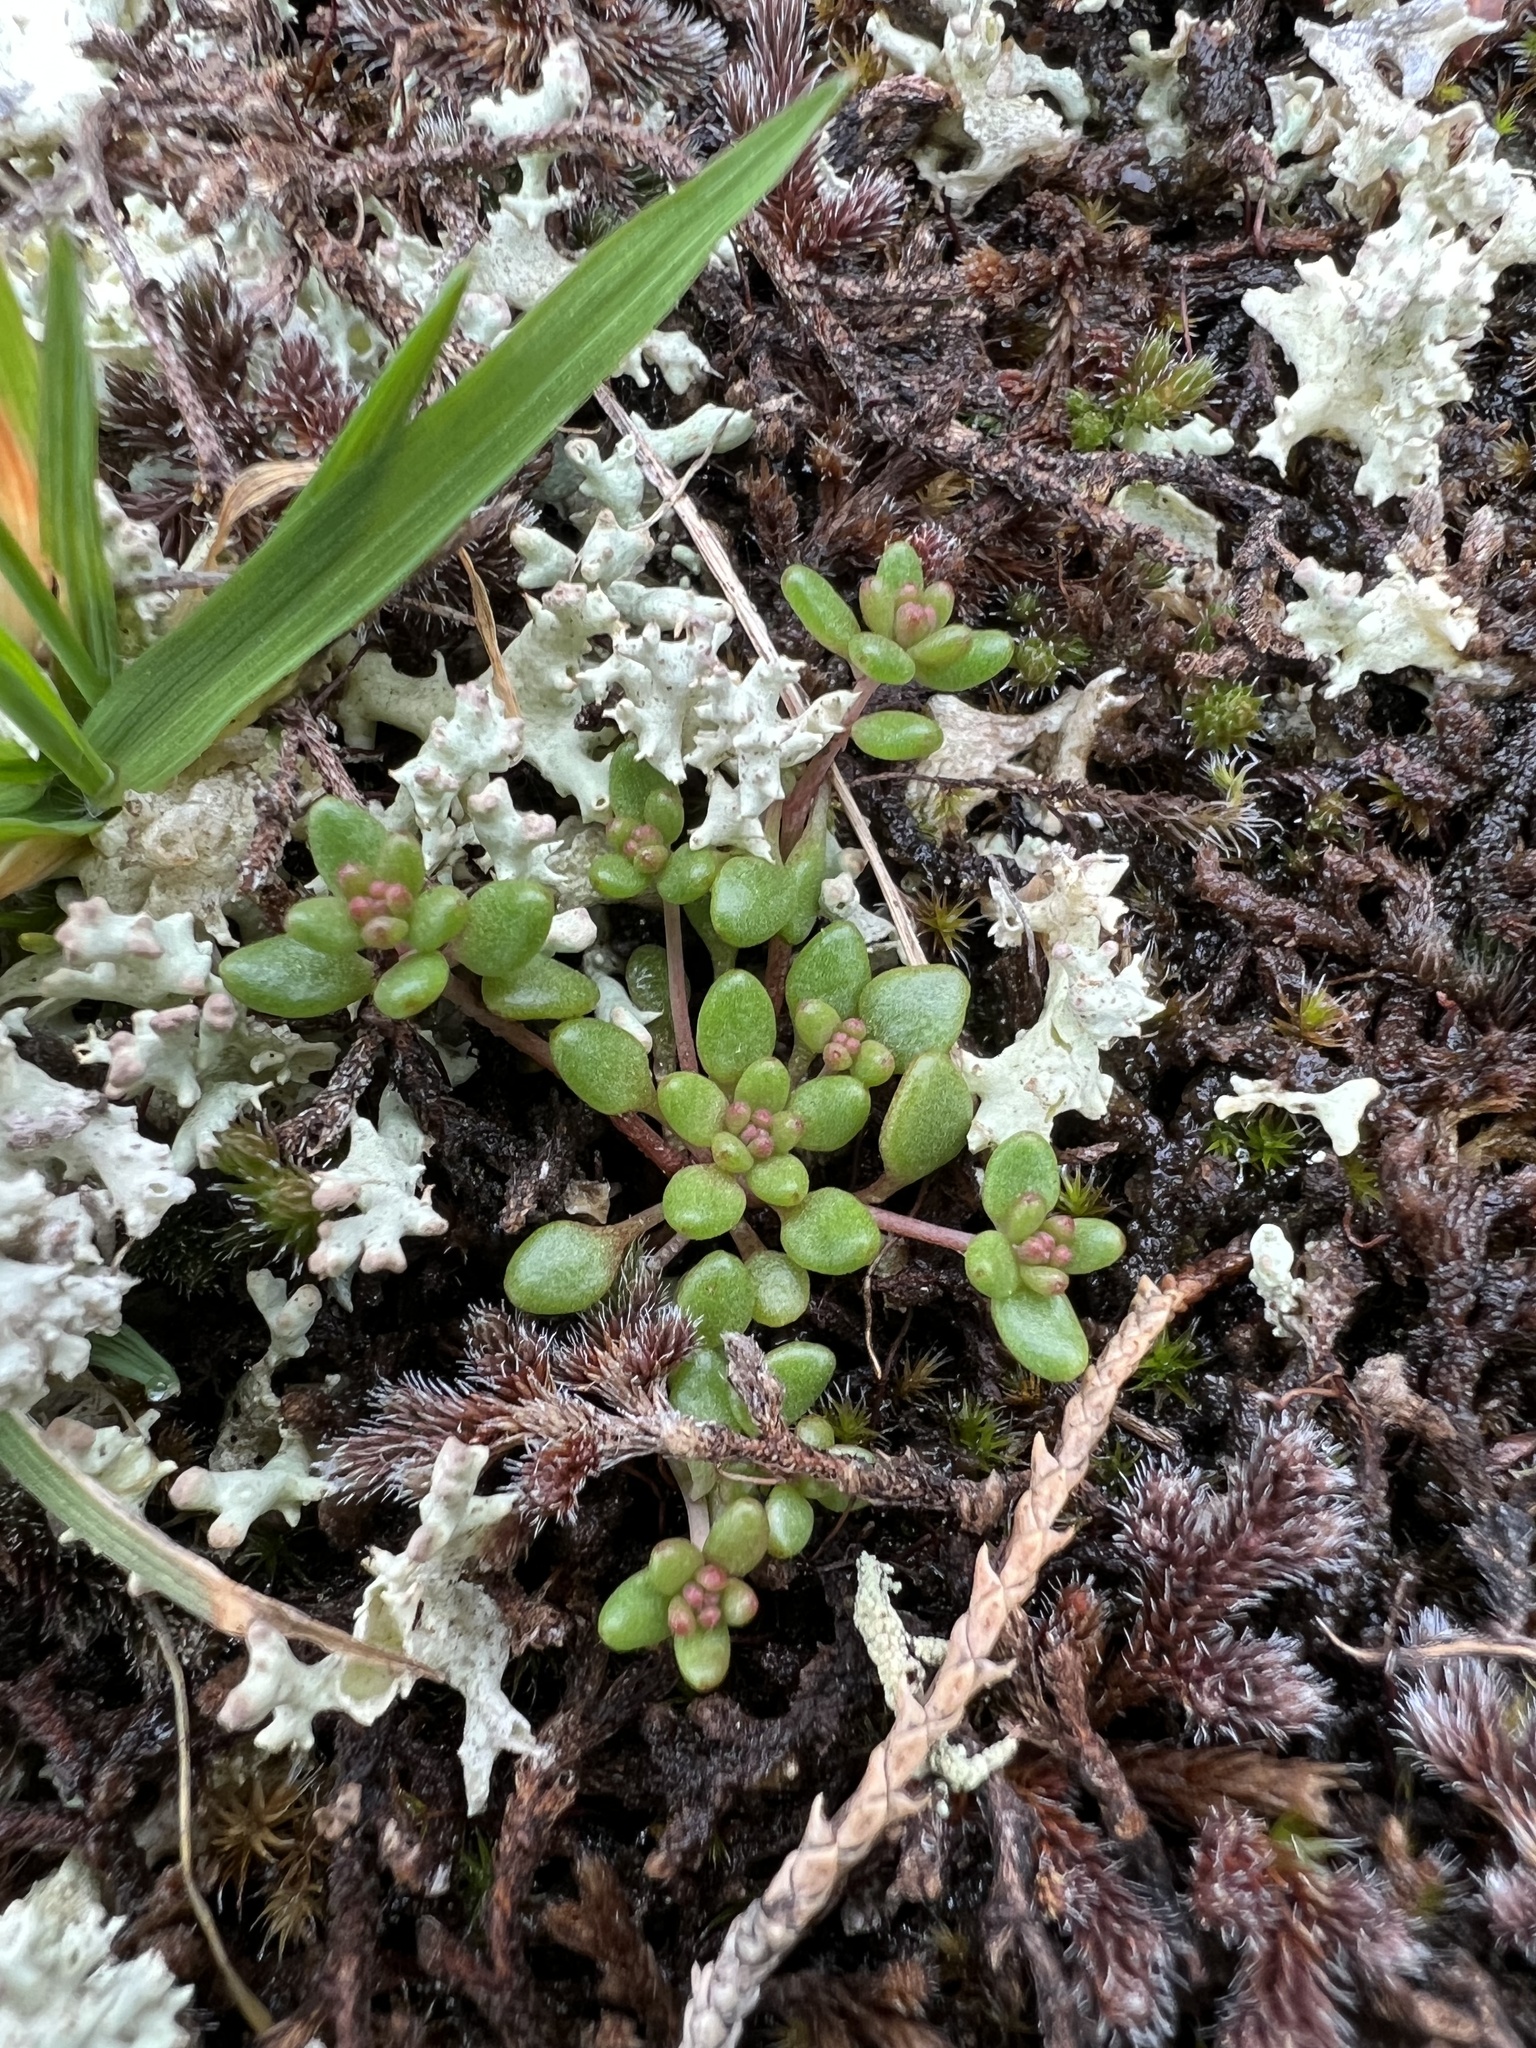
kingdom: Plantae
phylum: Tracheophyta
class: Magnoliopsida
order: Saxifragales
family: Crassulaceae
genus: Sedum
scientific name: Sedum smallii
